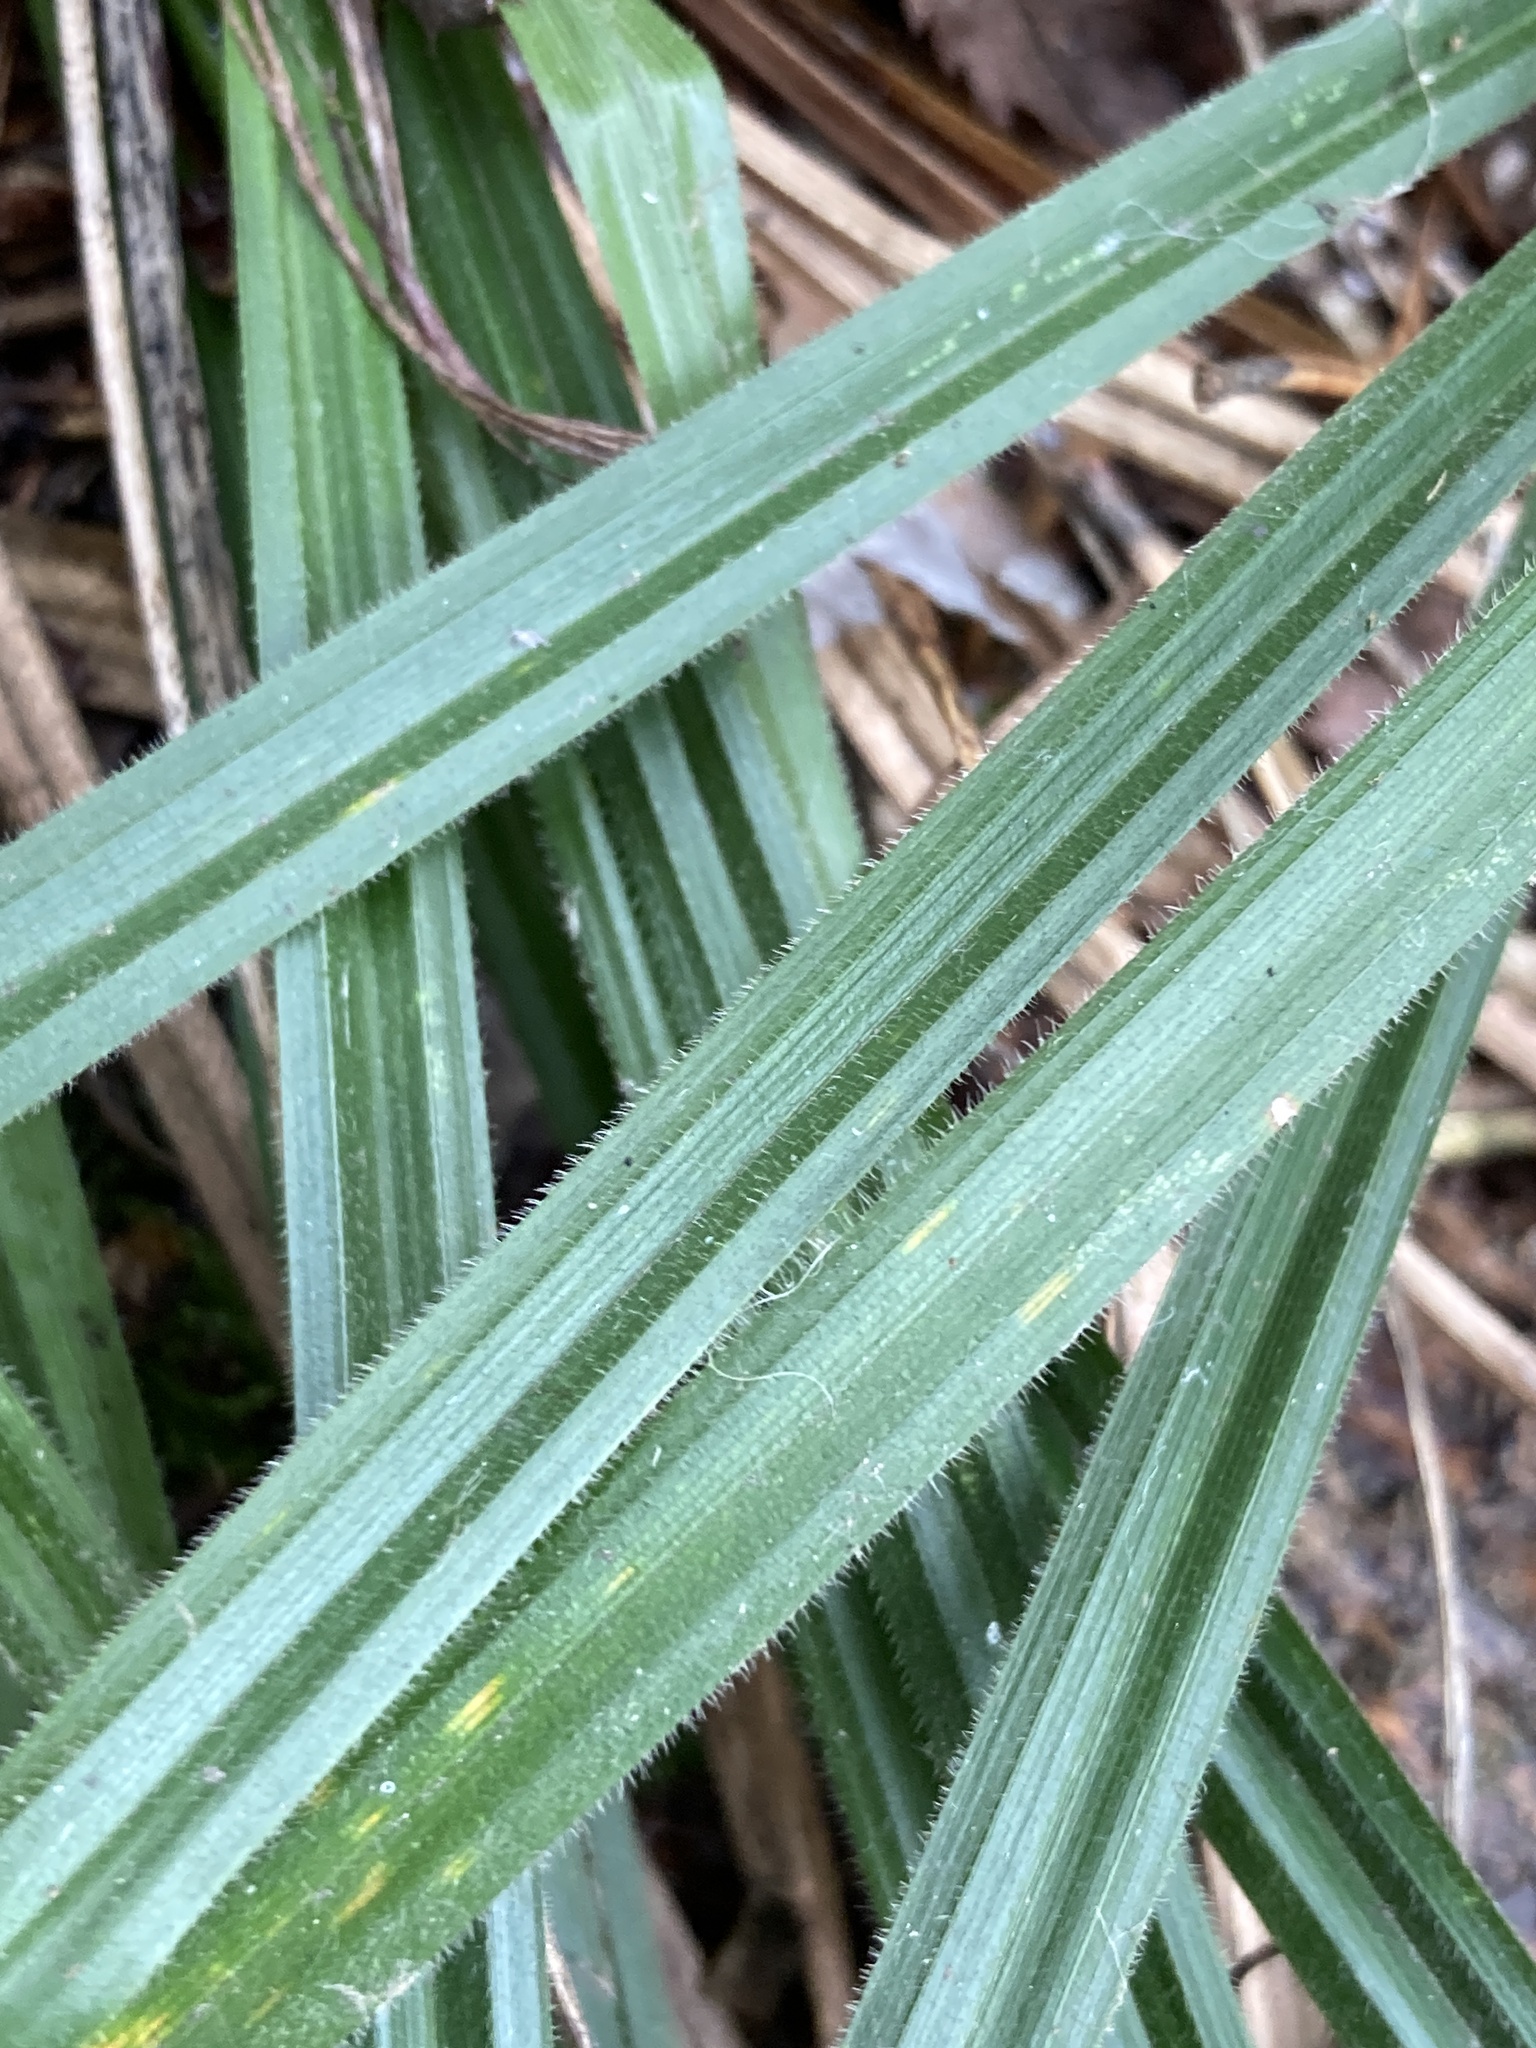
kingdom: Plantae
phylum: Tracheophyta
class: Liliopsida
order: Poales
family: Cyperaceae
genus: Carex
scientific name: Carex pilosa
